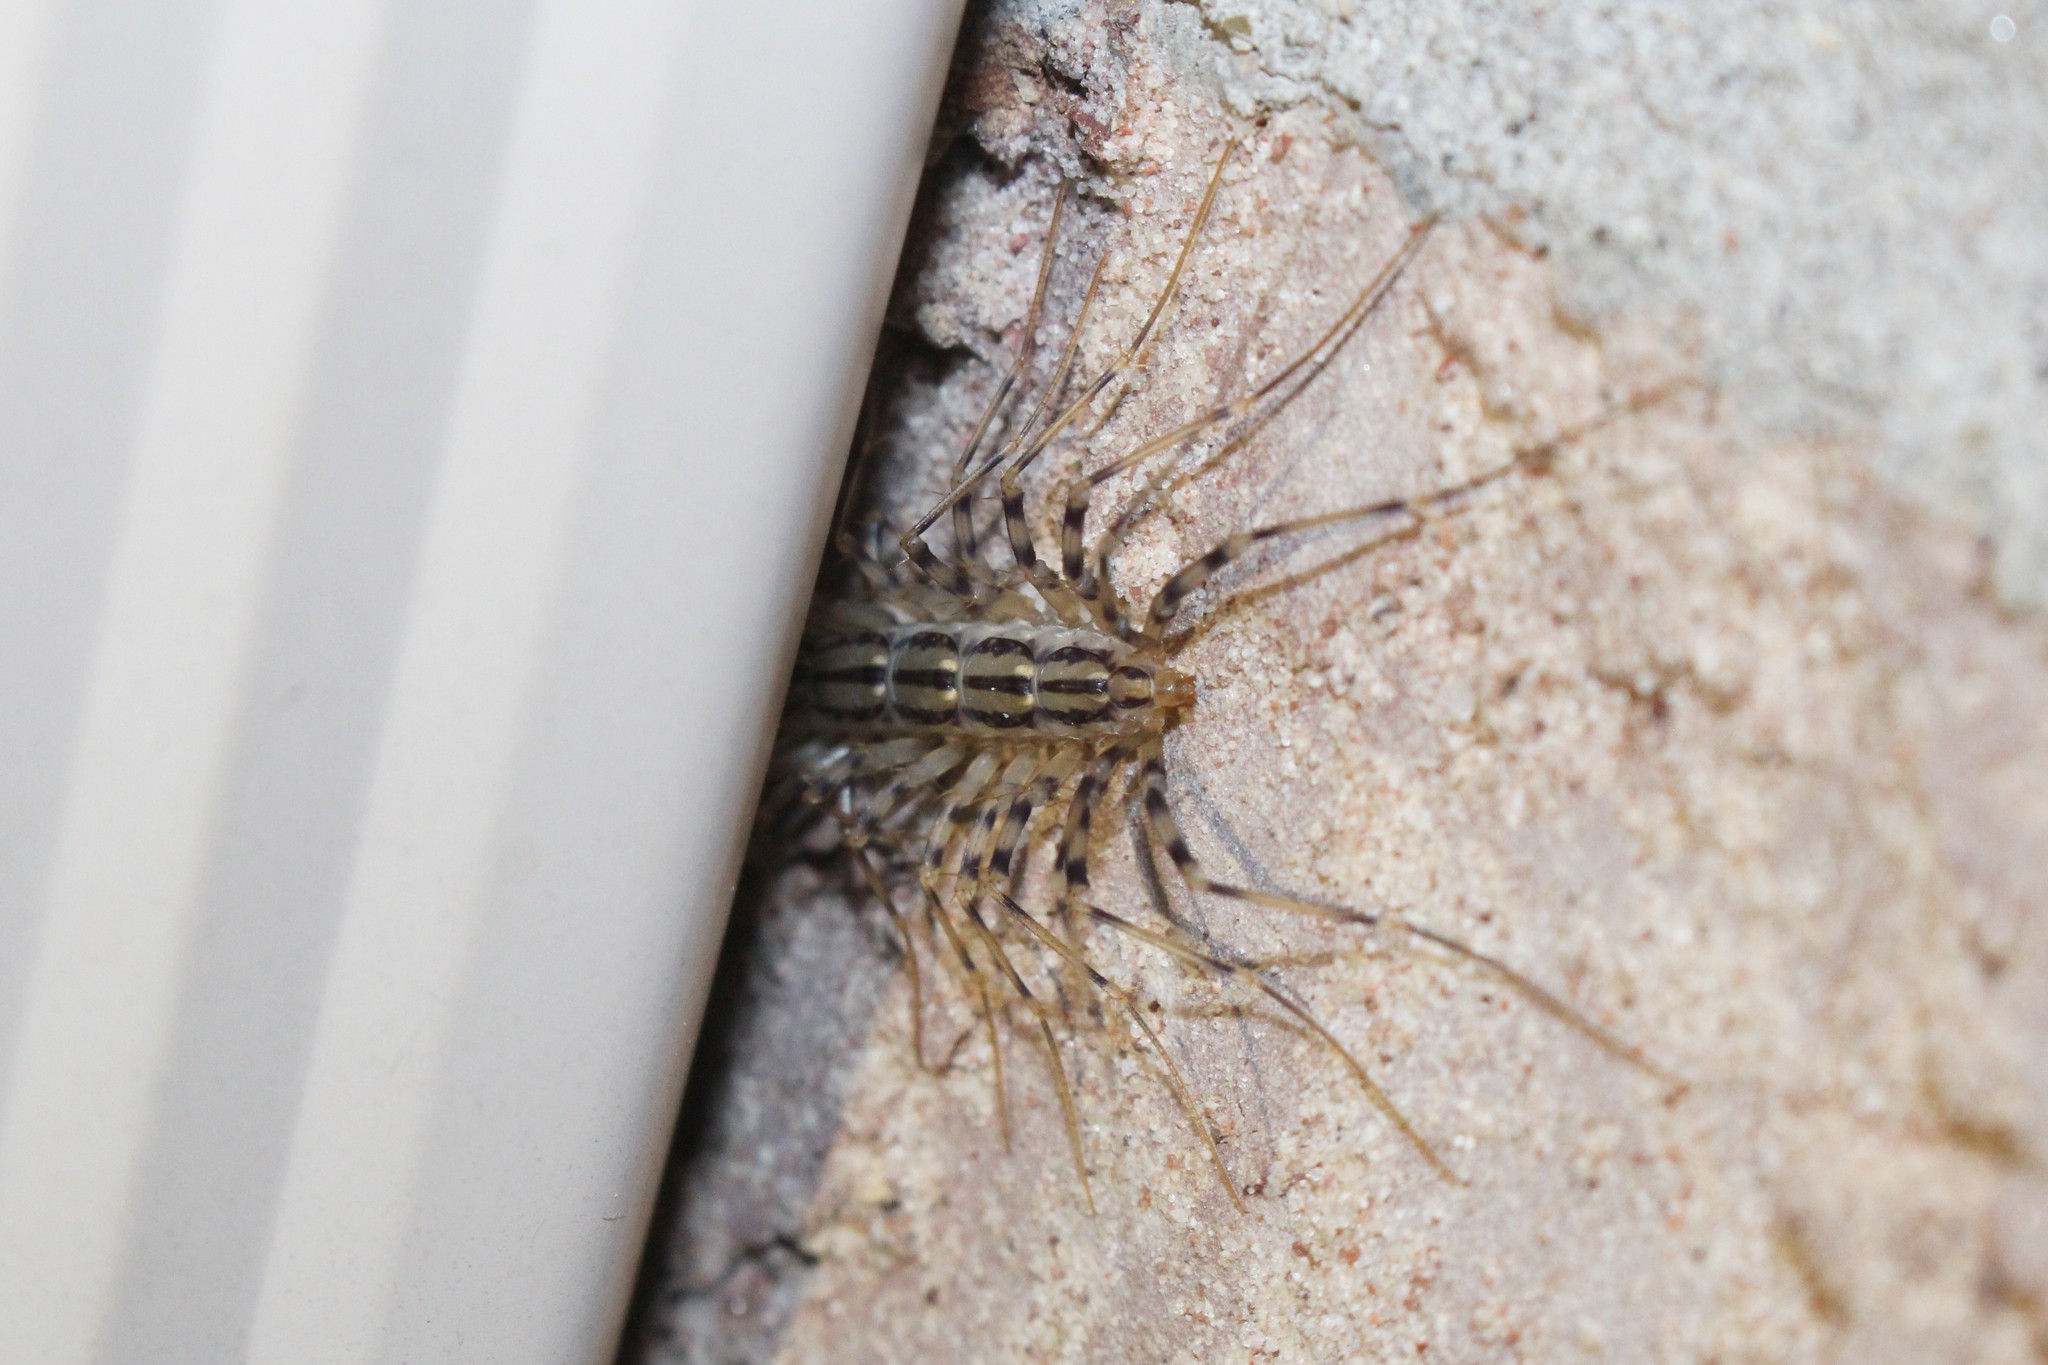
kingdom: Animalia
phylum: Arthropoda
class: Chilopoda
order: Scutigeromorpha
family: Scutigeridae
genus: Scutigera
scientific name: Scutigera coleoptrata
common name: House centipede
